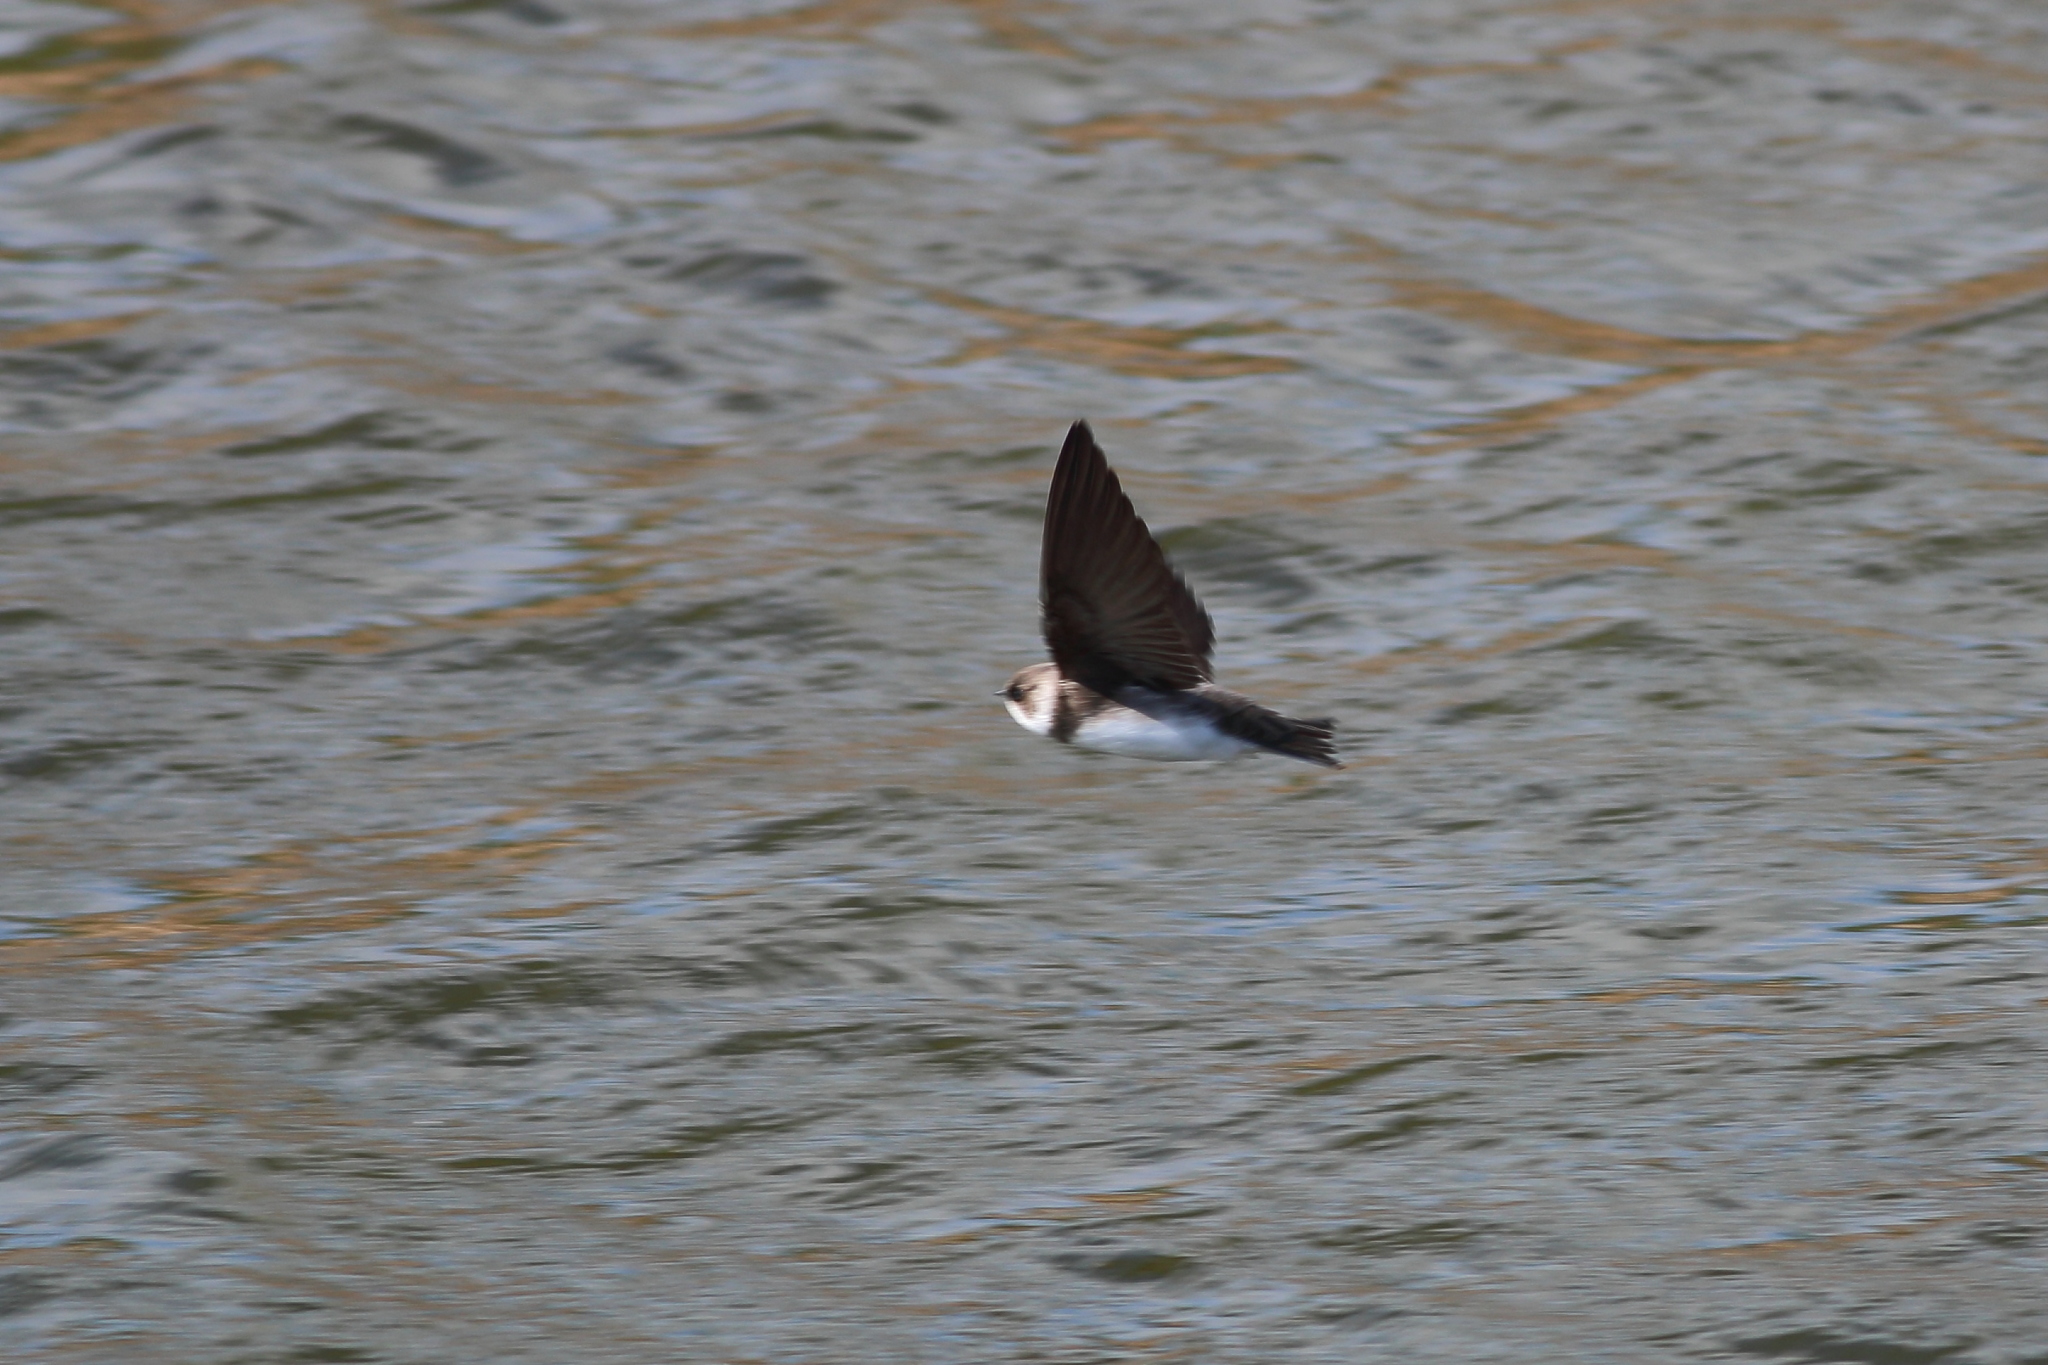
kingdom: Animalia
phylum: Chordata
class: Aves
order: Passeriformes
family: Hirundinidae
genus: Riparia
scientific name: Riparia riparia
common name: Sand martin
